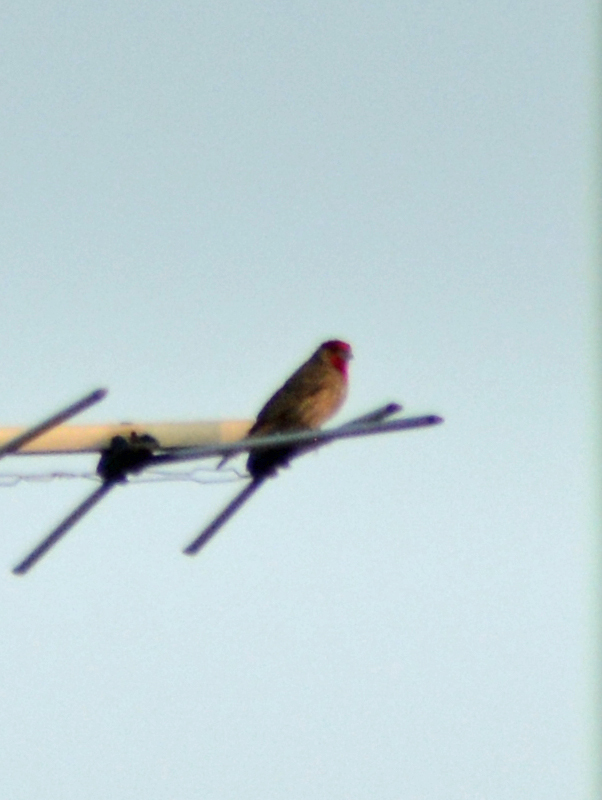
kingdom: Animalia
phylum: Chordata
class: Aves
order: Passeriformes
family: Fringillidae
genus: Haemorhous
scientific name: Haemorhous mexicanus
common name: House finch
